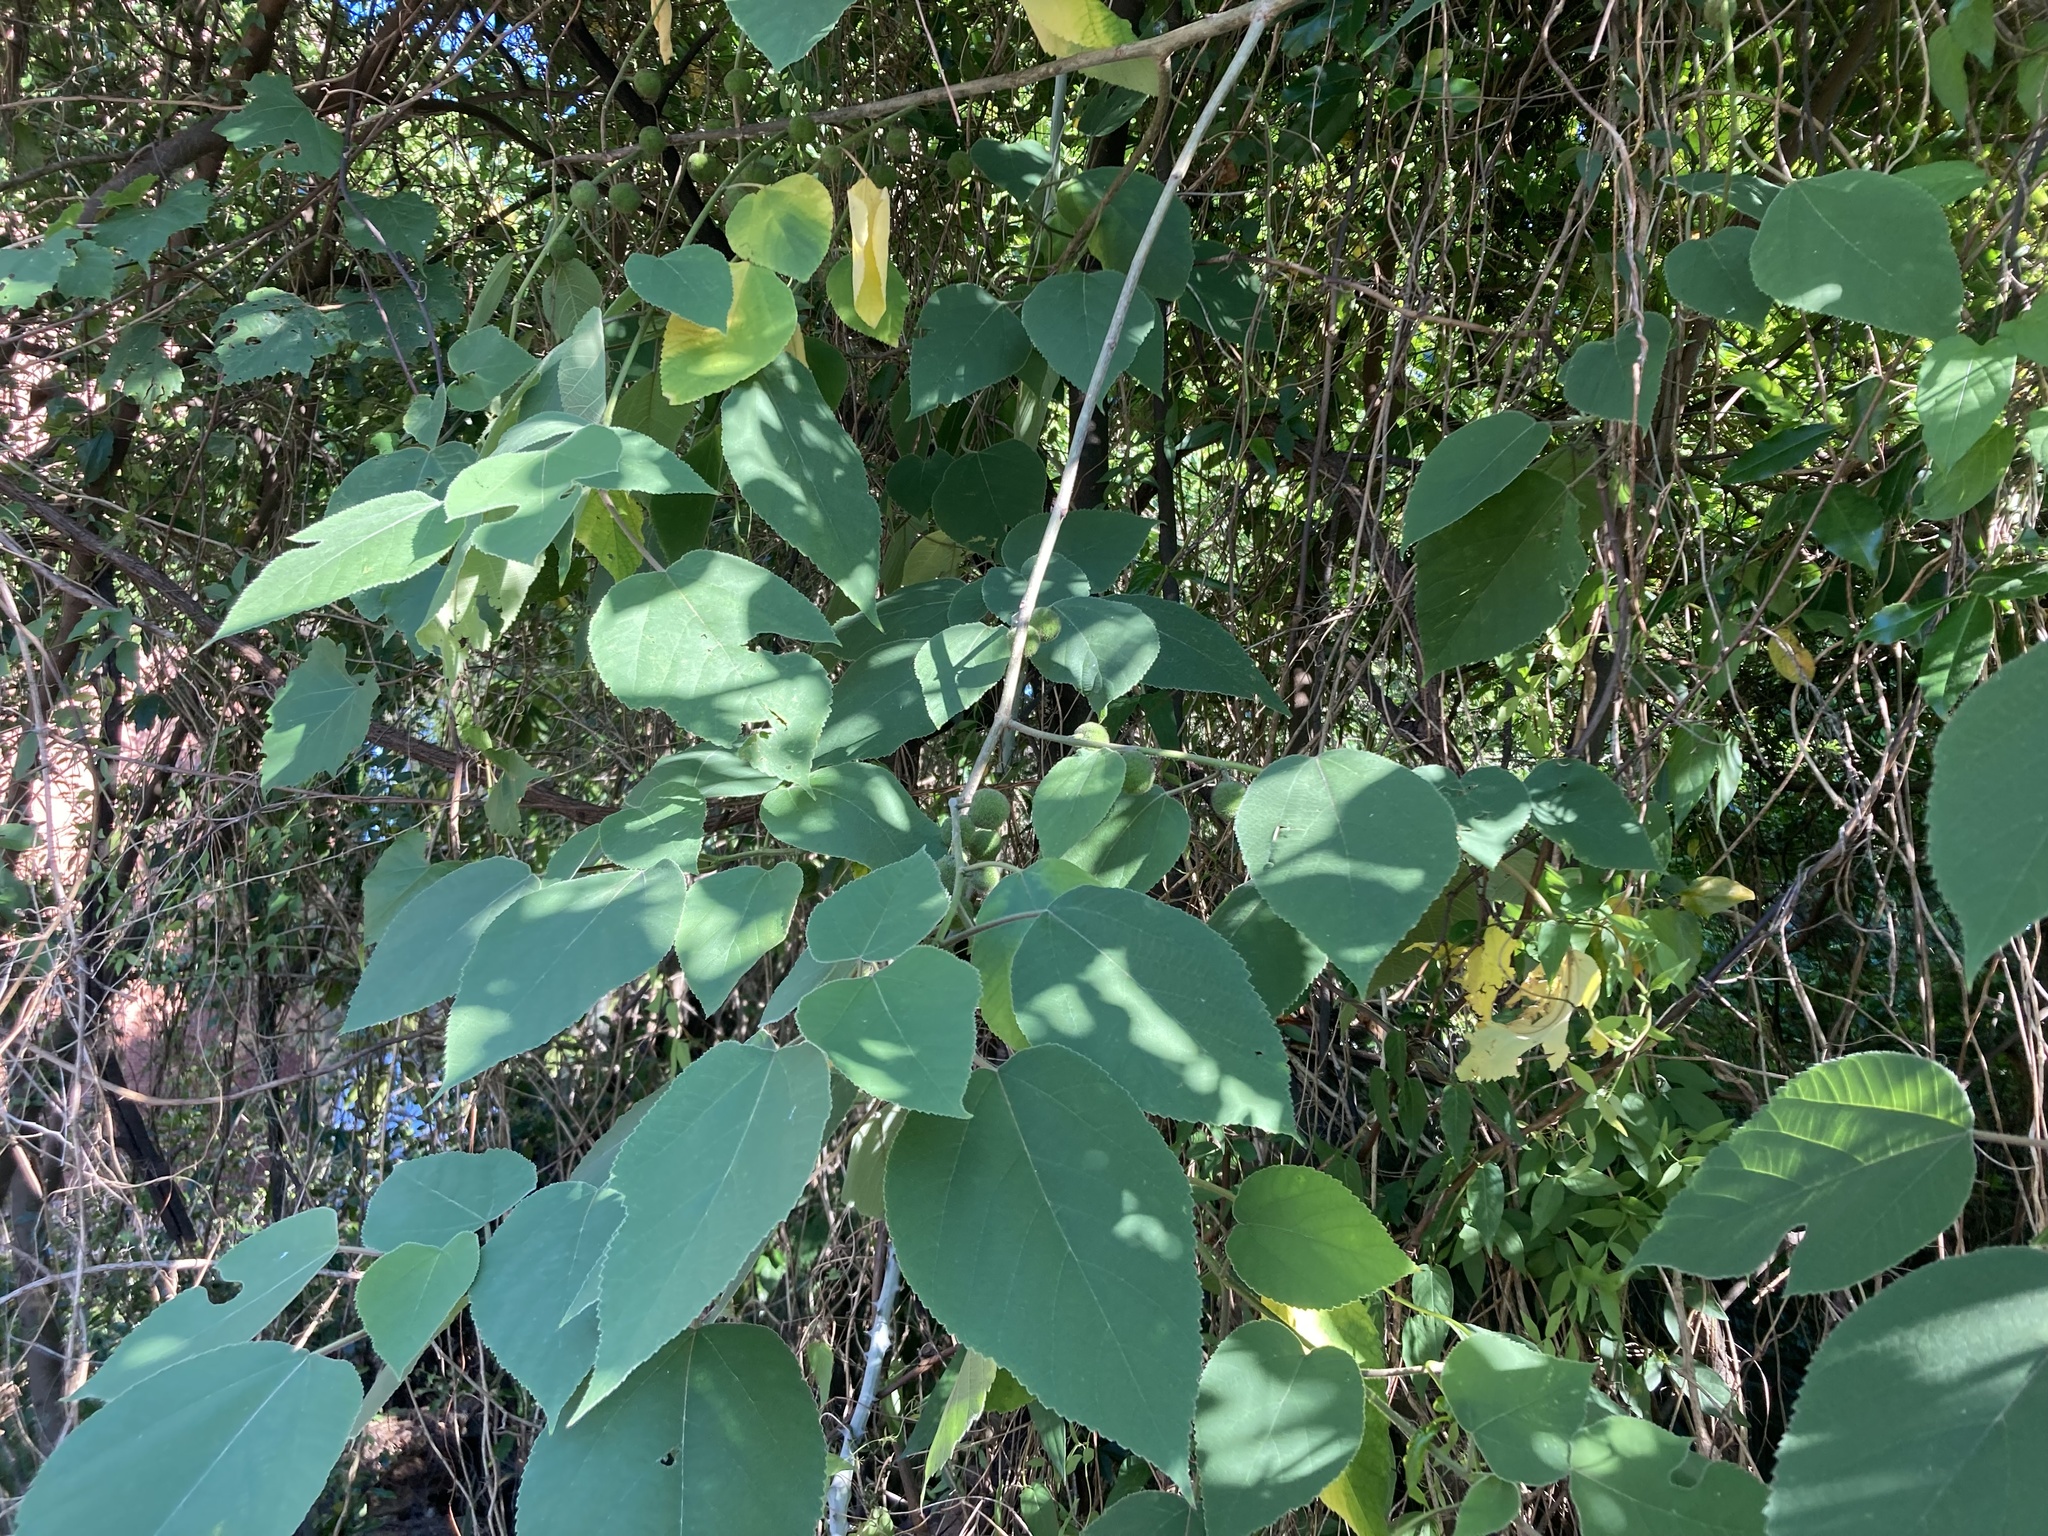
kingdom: Plantae
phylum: Tracheophyta
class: Magnoliopsida
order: Rosales
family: Moraceae
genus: Broussonetia
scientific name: Broussonetia papyrifera
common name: Paper mulberry
